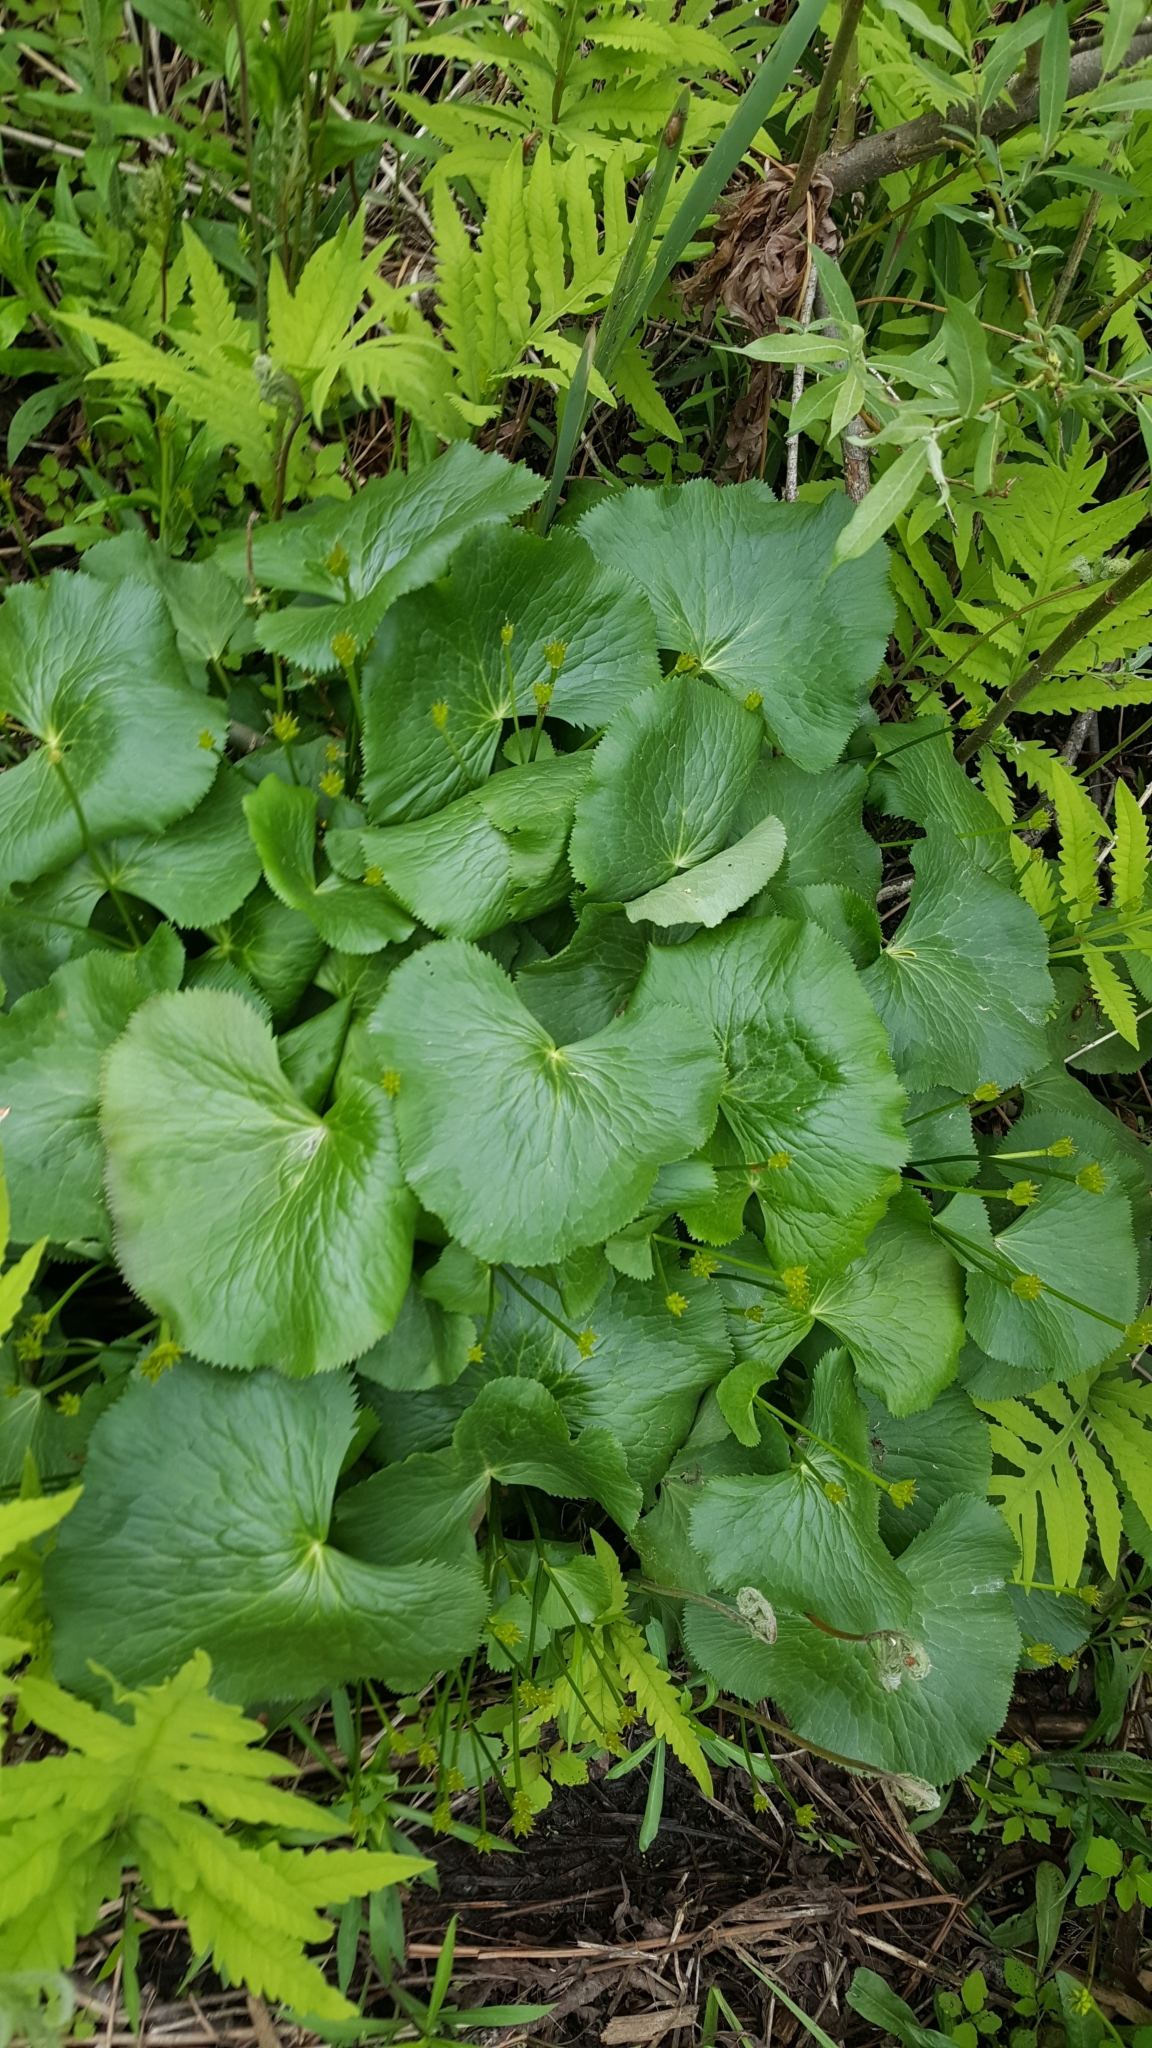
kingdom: Plantae
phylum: Tracheophyta
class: Magnoliopsida
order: Ranunculales
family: Ranunculaceae
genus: Caltha
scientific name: Caltha palustris
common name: Marsh marigold
